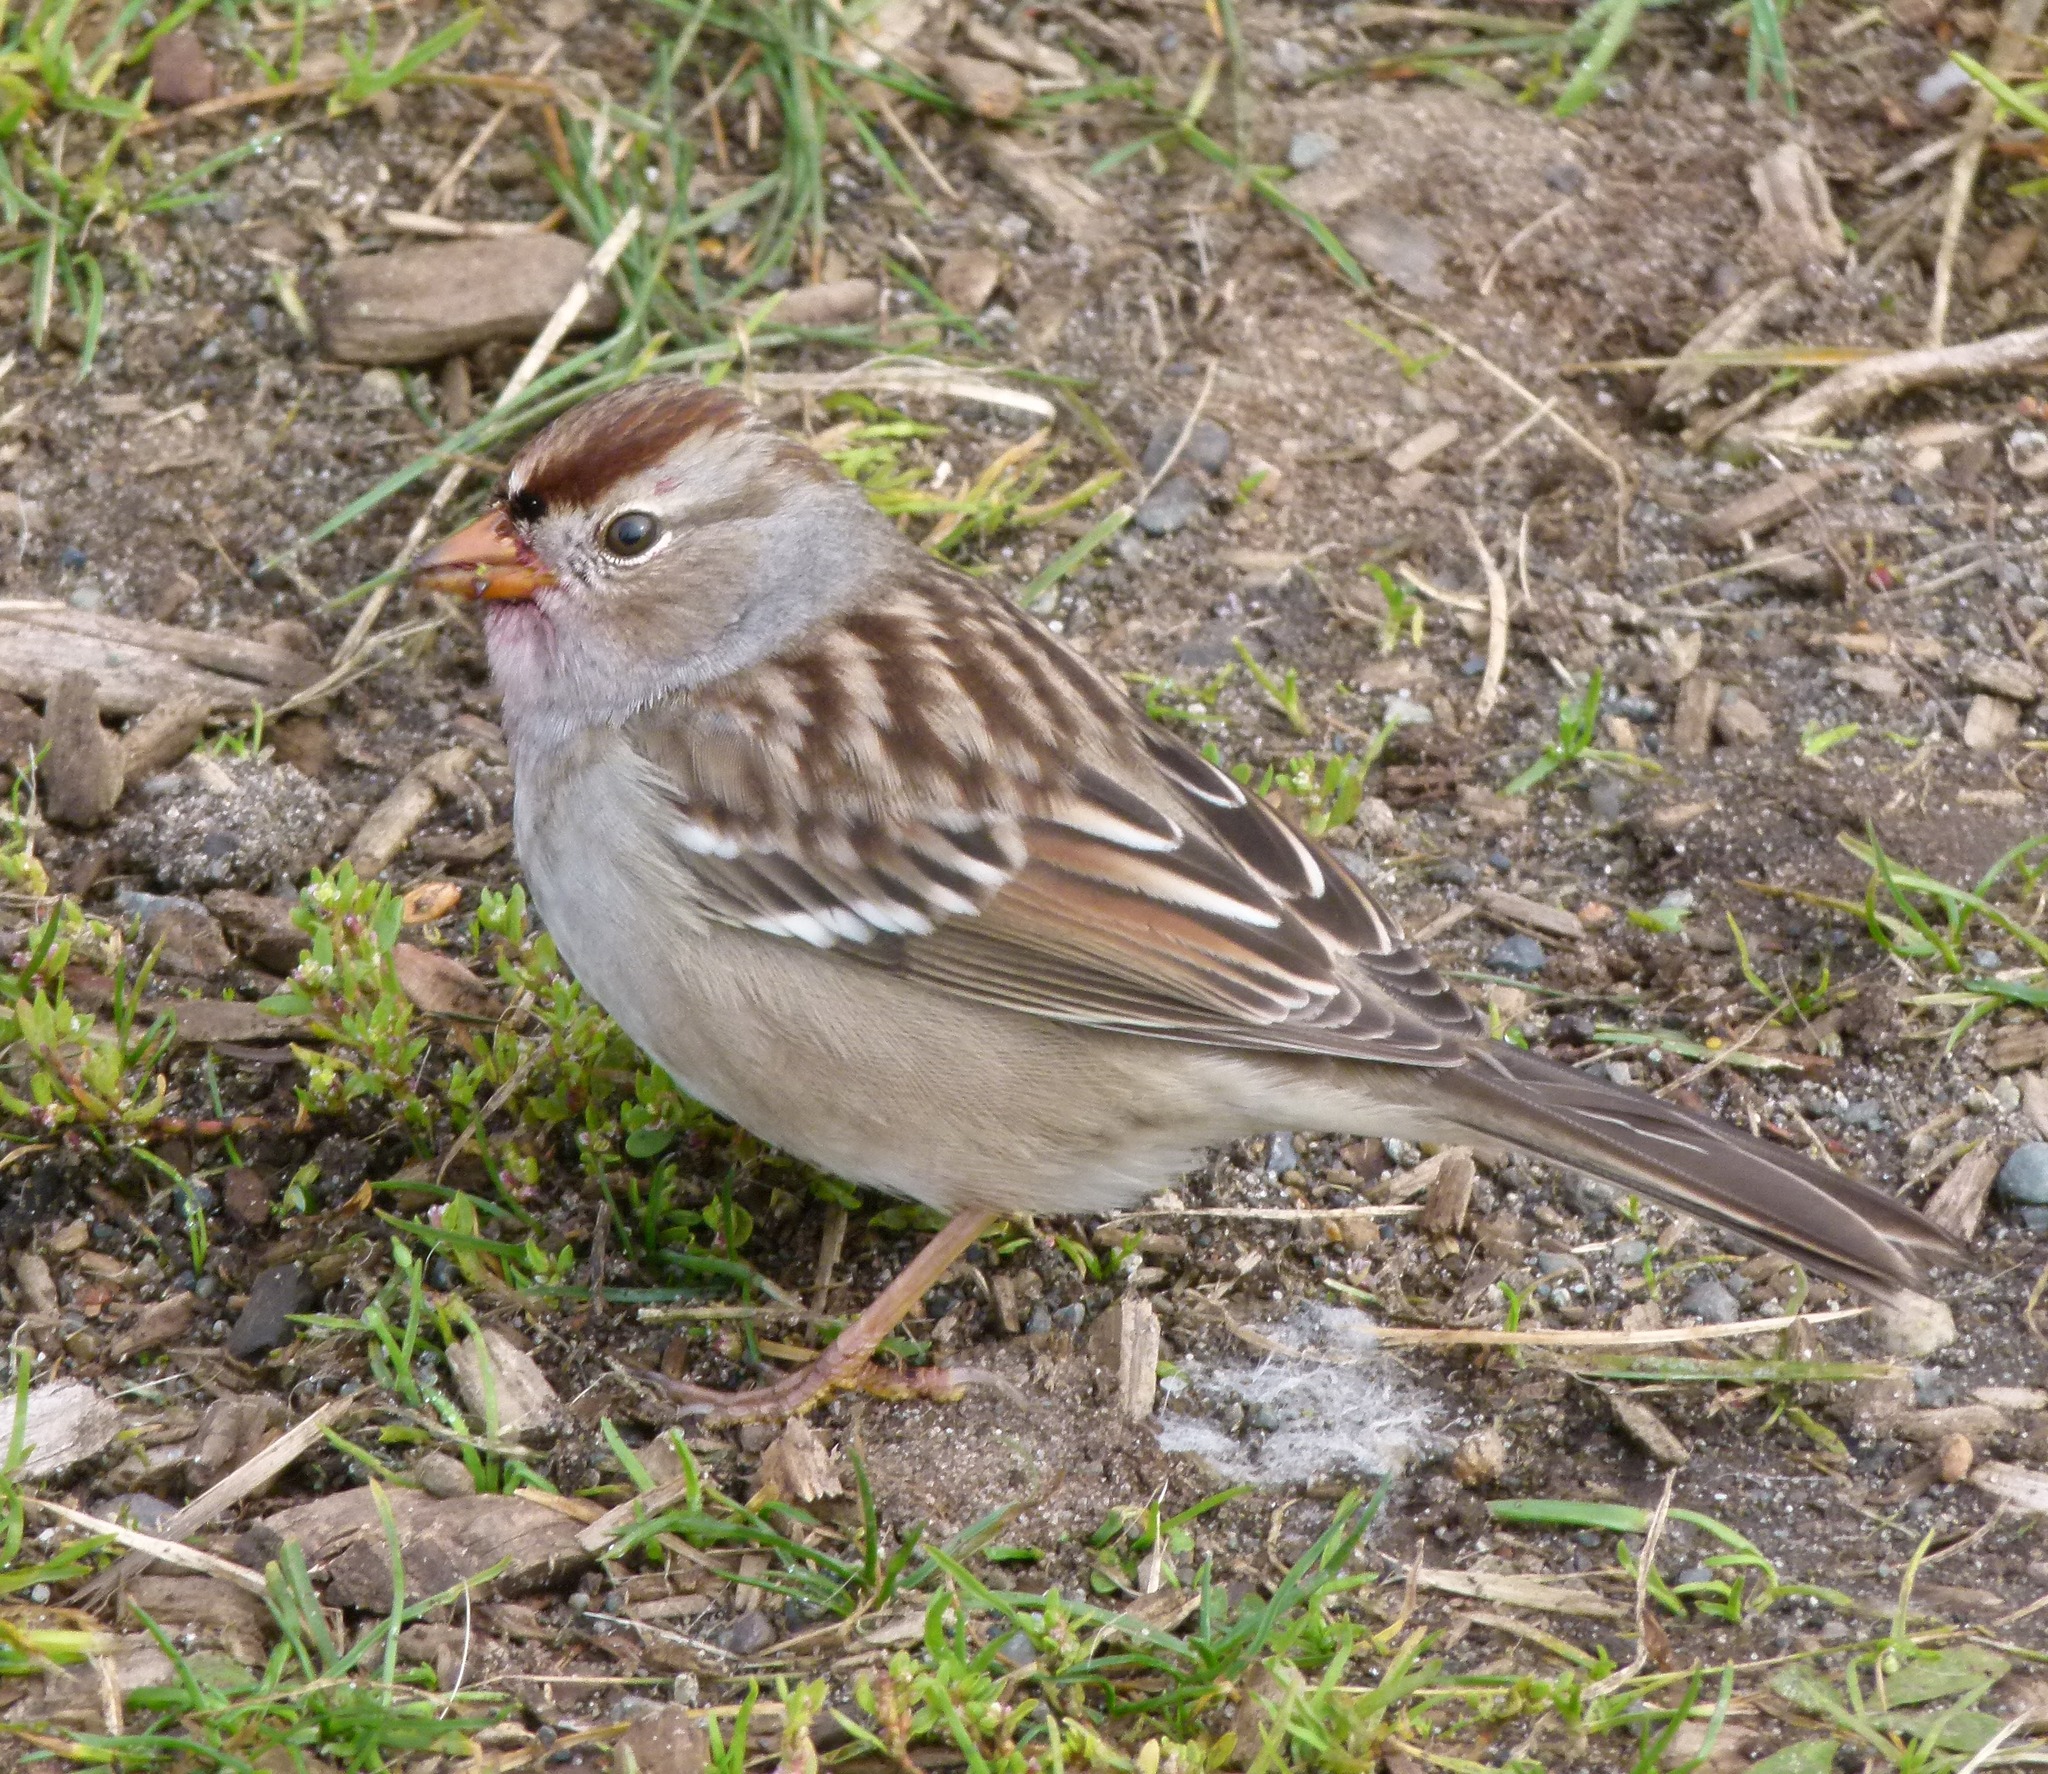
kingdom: Animalia
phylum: Chordata
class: Aves
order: Passeriformes
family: Passerellidae
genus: Zonotrichia
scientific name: Zonotrichia leucophrys
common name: White-crowned sparrow
